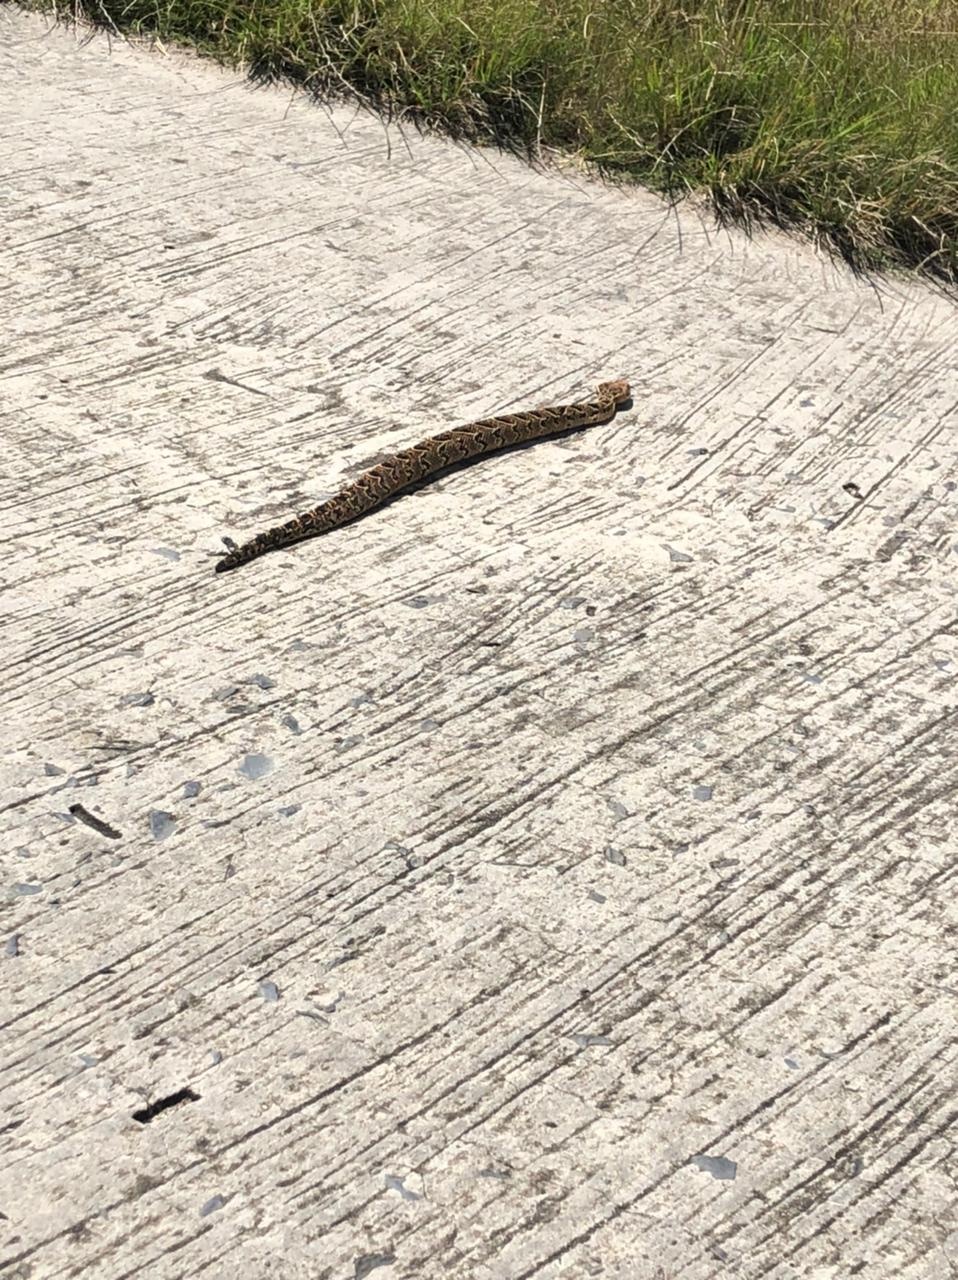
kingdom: Animalia
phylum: Chordata
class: Squamata
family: Viperidae
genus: Bitis
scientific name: Bitis arietans
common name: Puff adder
